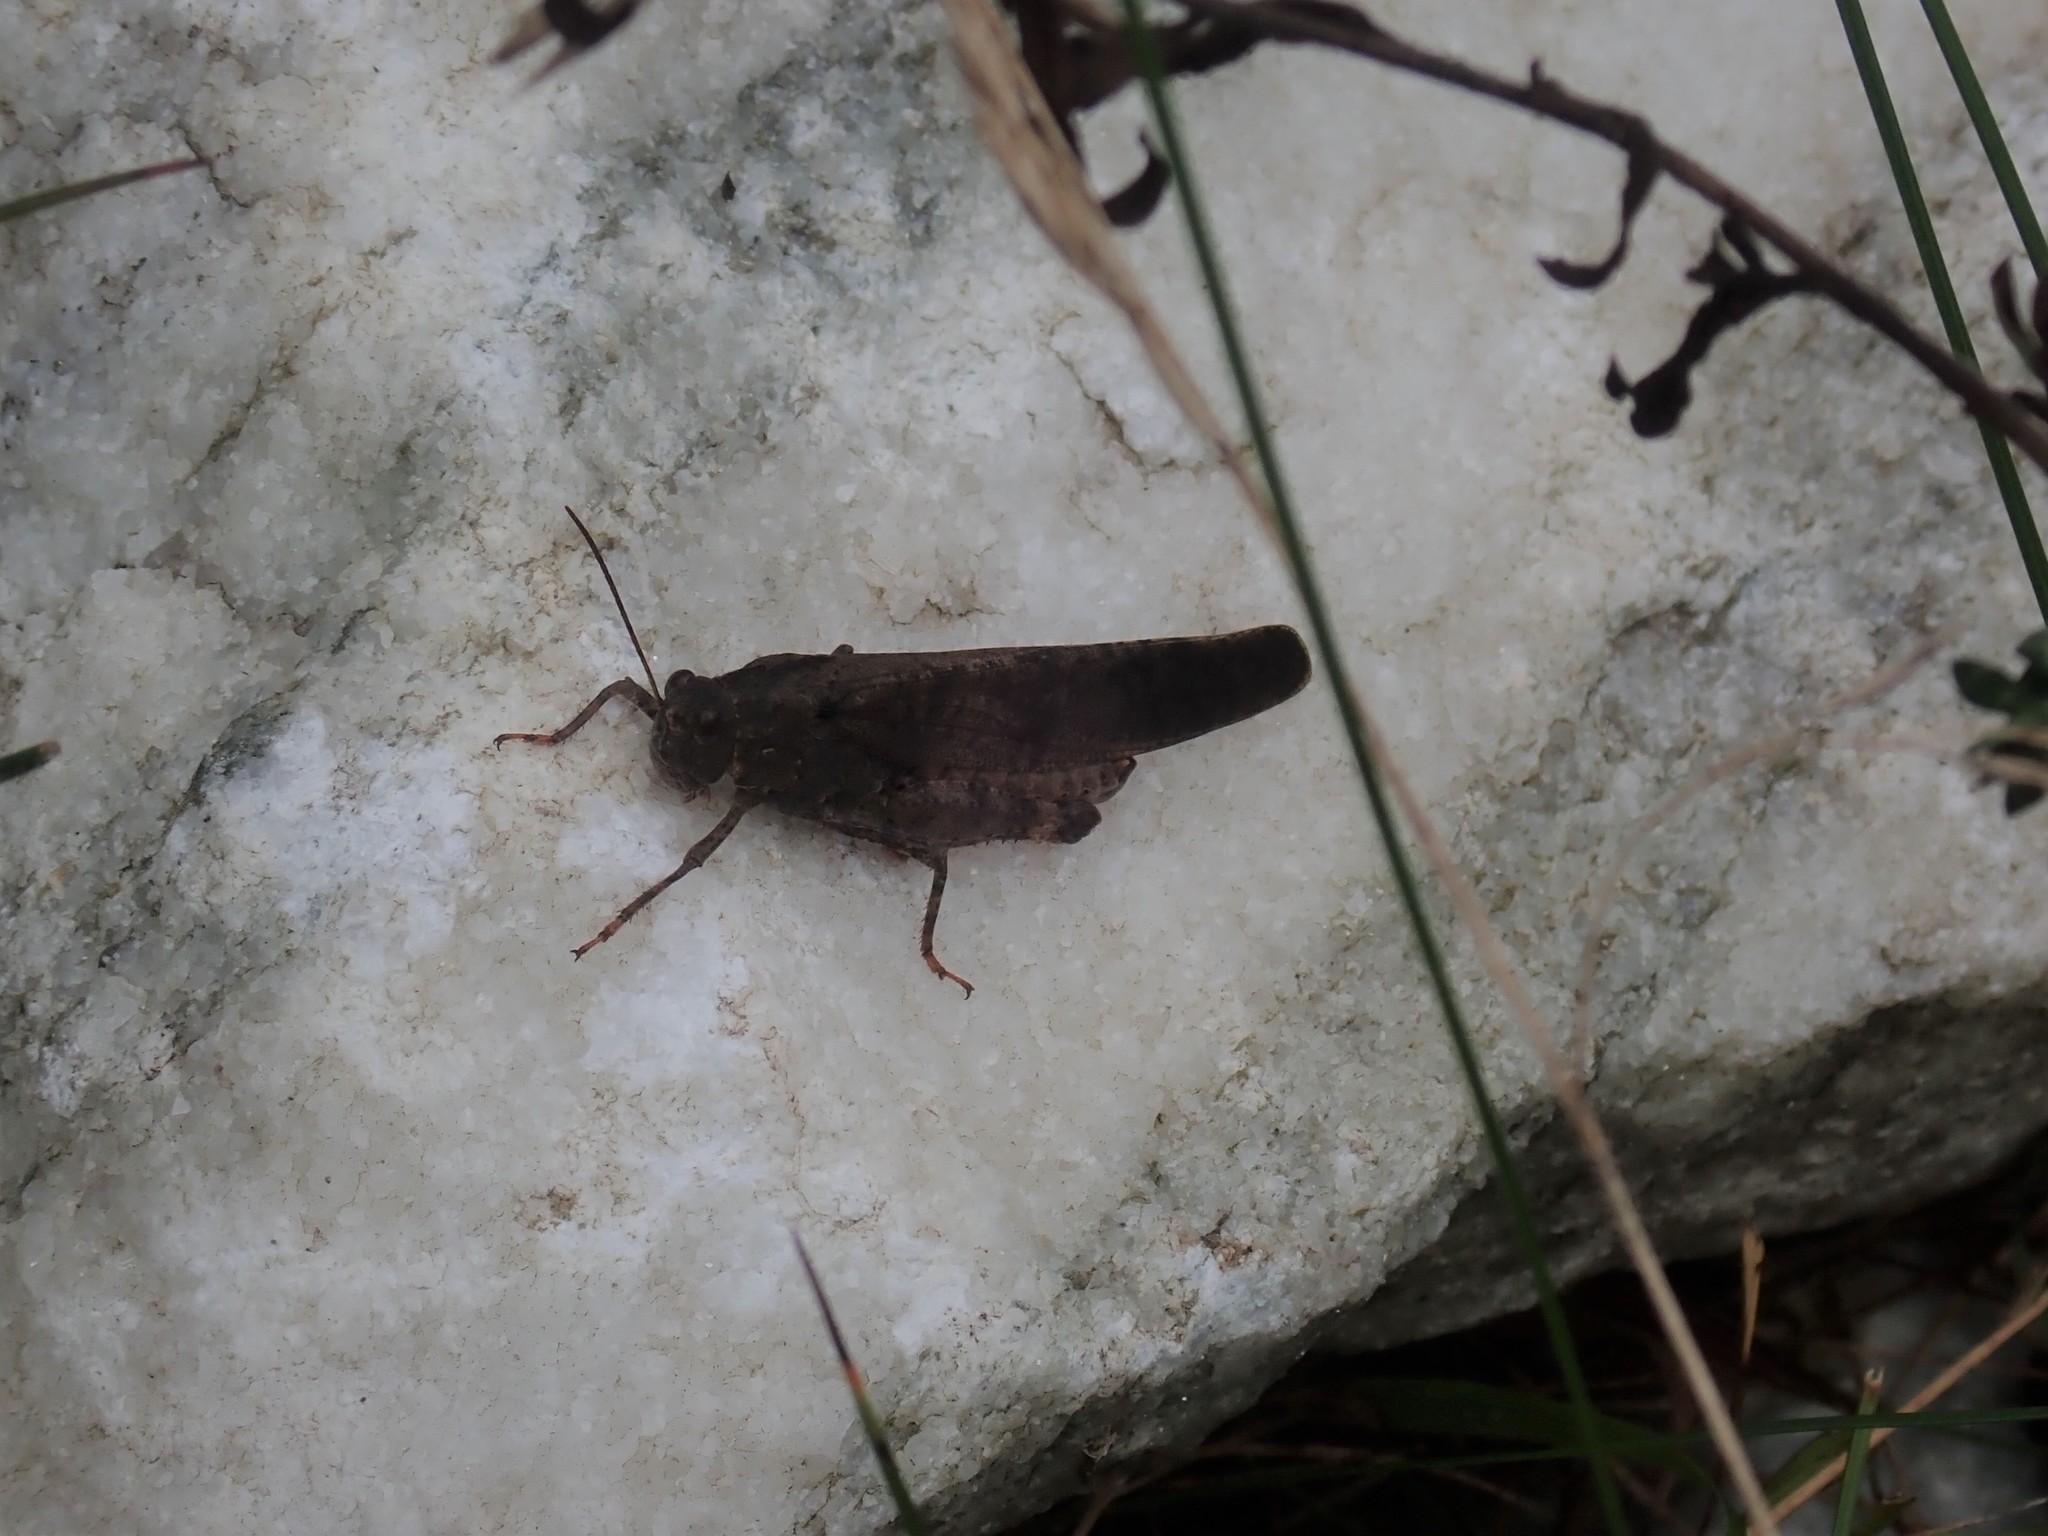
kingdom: Animalia
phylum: Arthropoda
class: Insecta
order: Orthoptera
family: Acrididae
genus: Dissosteira
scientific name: Dissosteira carolina
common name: Carolina grasshopper
